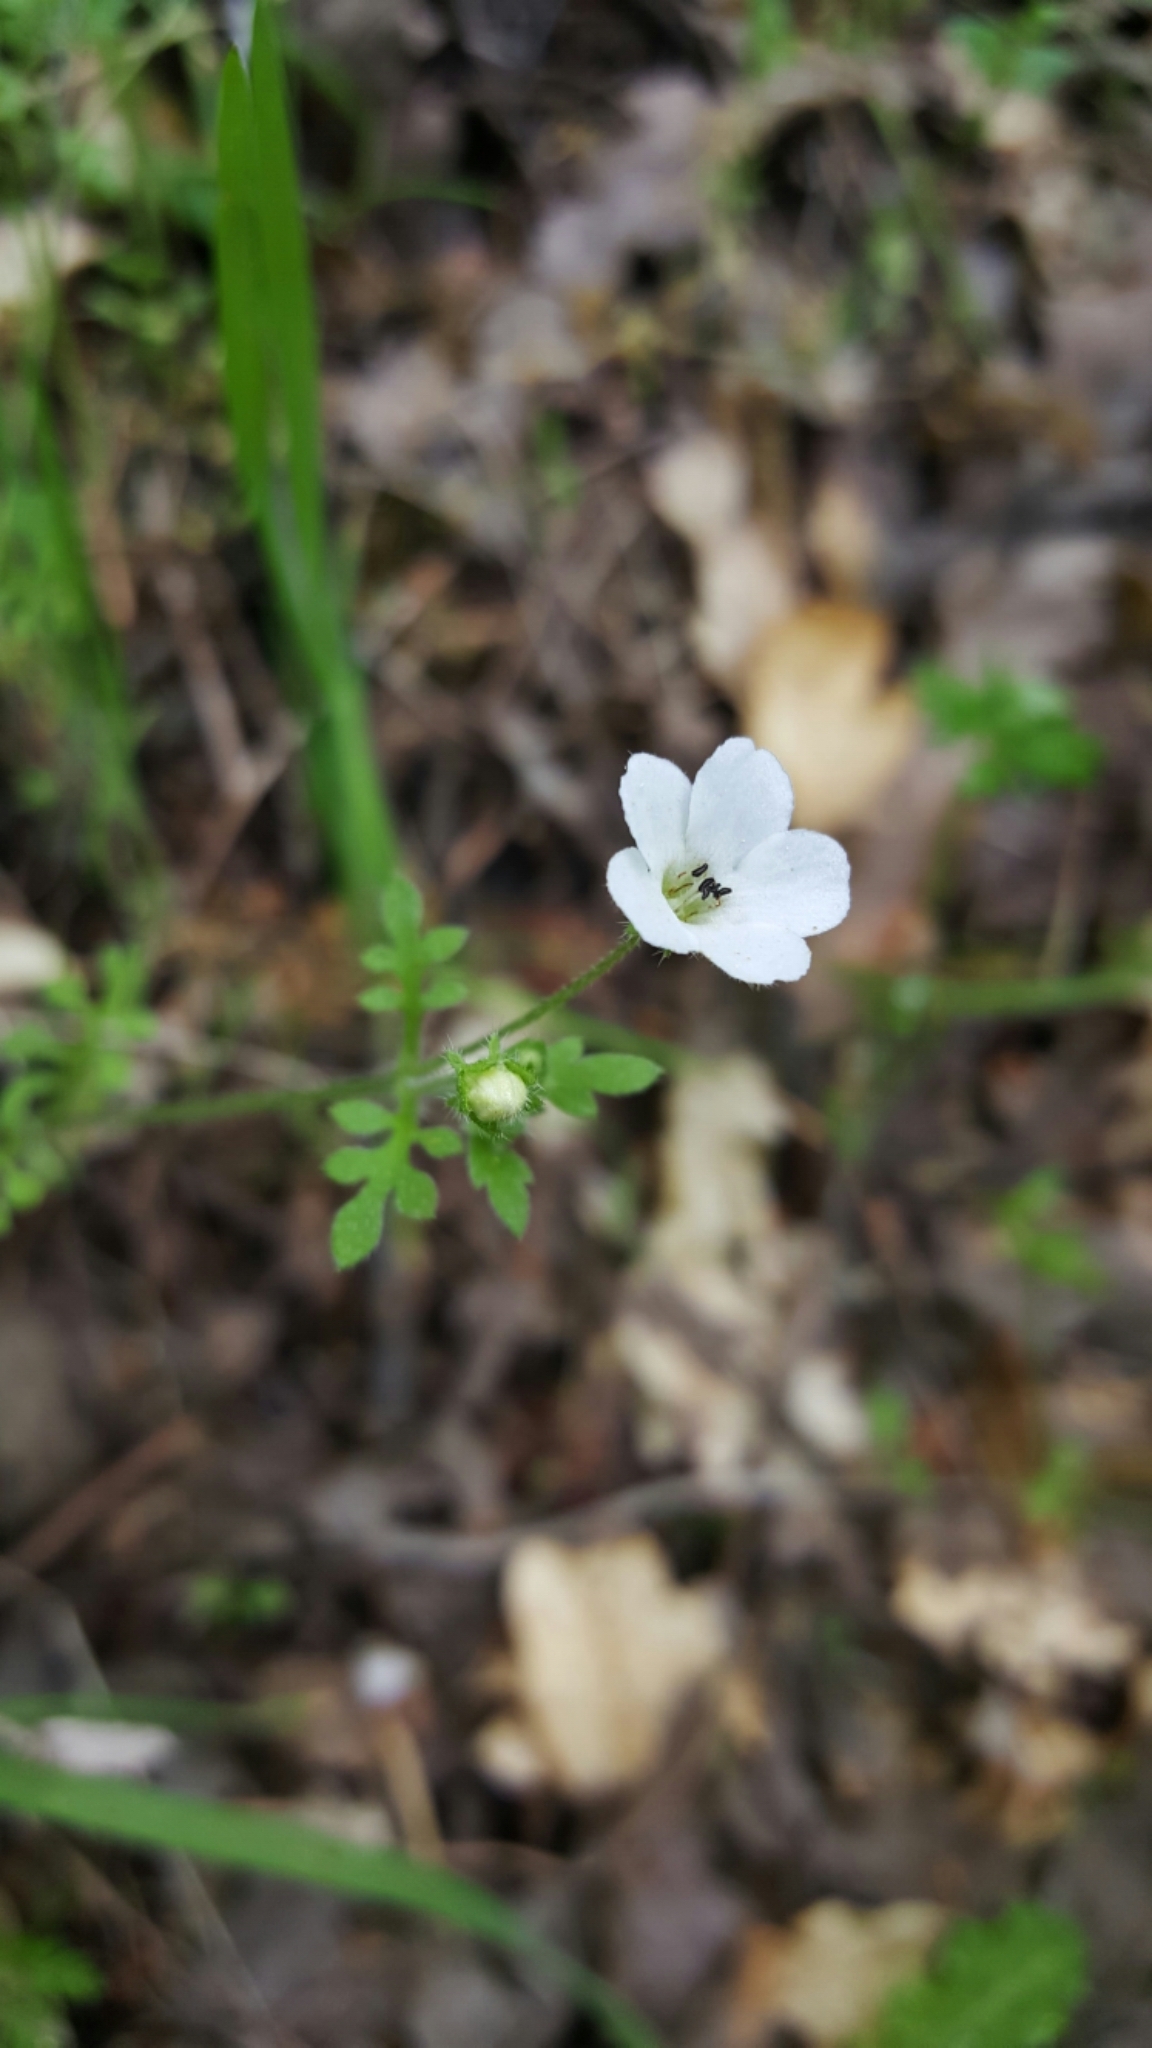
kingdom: Plantae
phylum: Tracheophyta
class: Magnoliopsida
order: Boraginales
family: Hydrophyllaceae
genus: Nemophila
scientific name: Nemophila heterophylla
